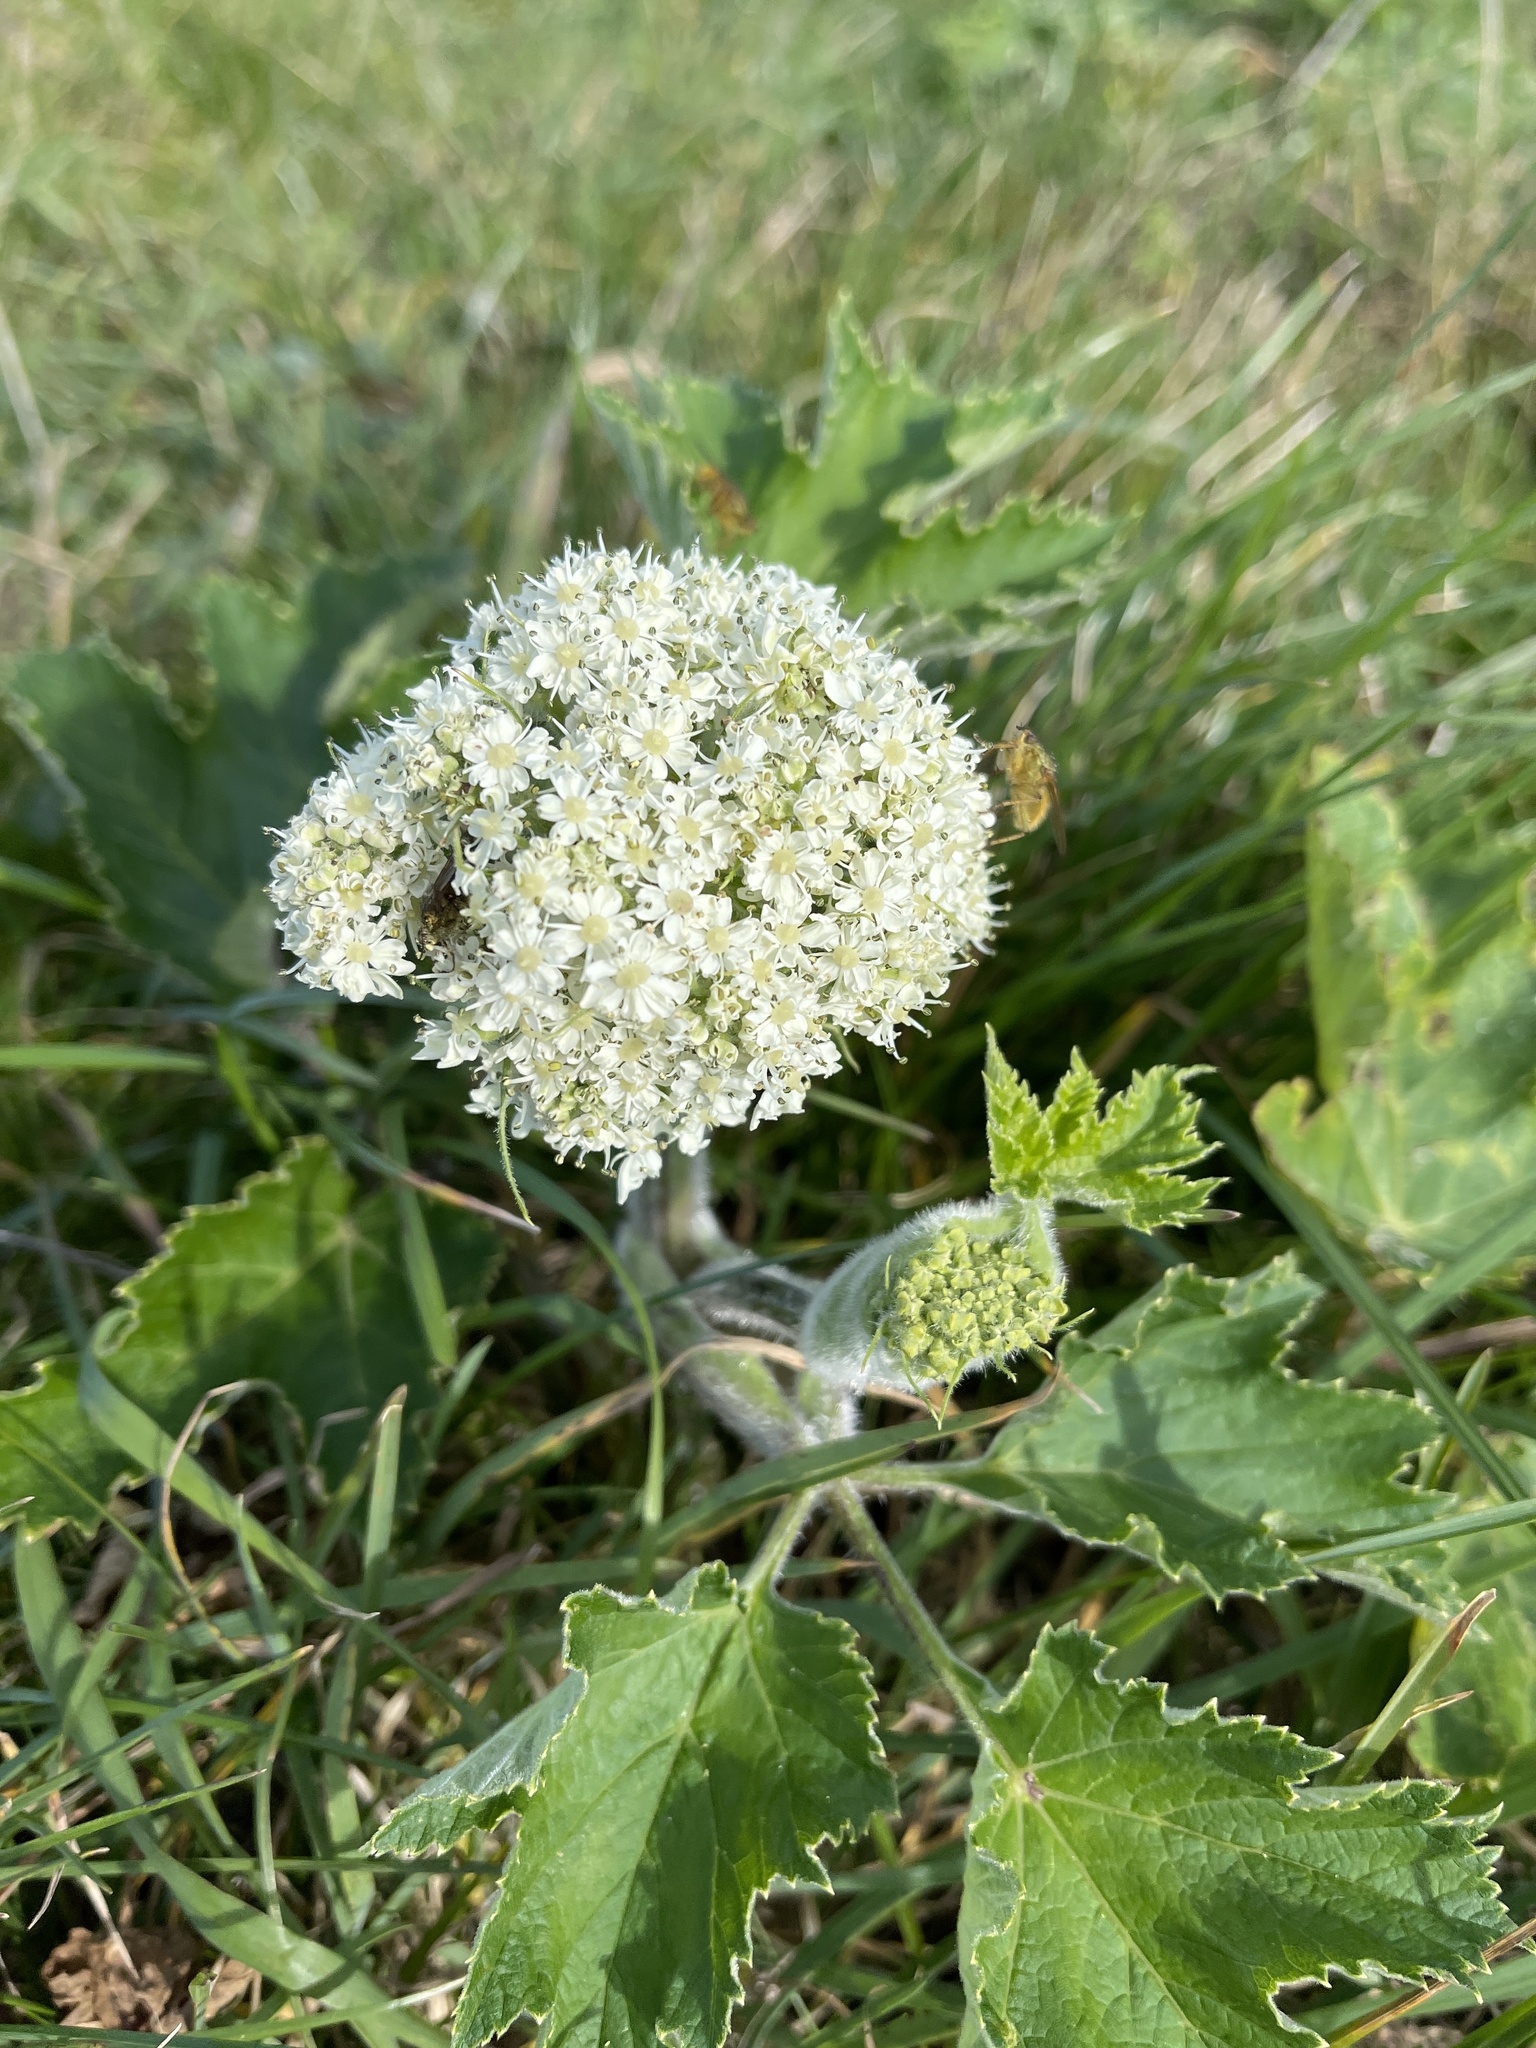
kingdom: Plantae
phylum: Tracheophyta
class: Magnoliopsida
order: Apiales
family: Apiaceae
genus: Angelica
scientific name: Angelica hendersonii
